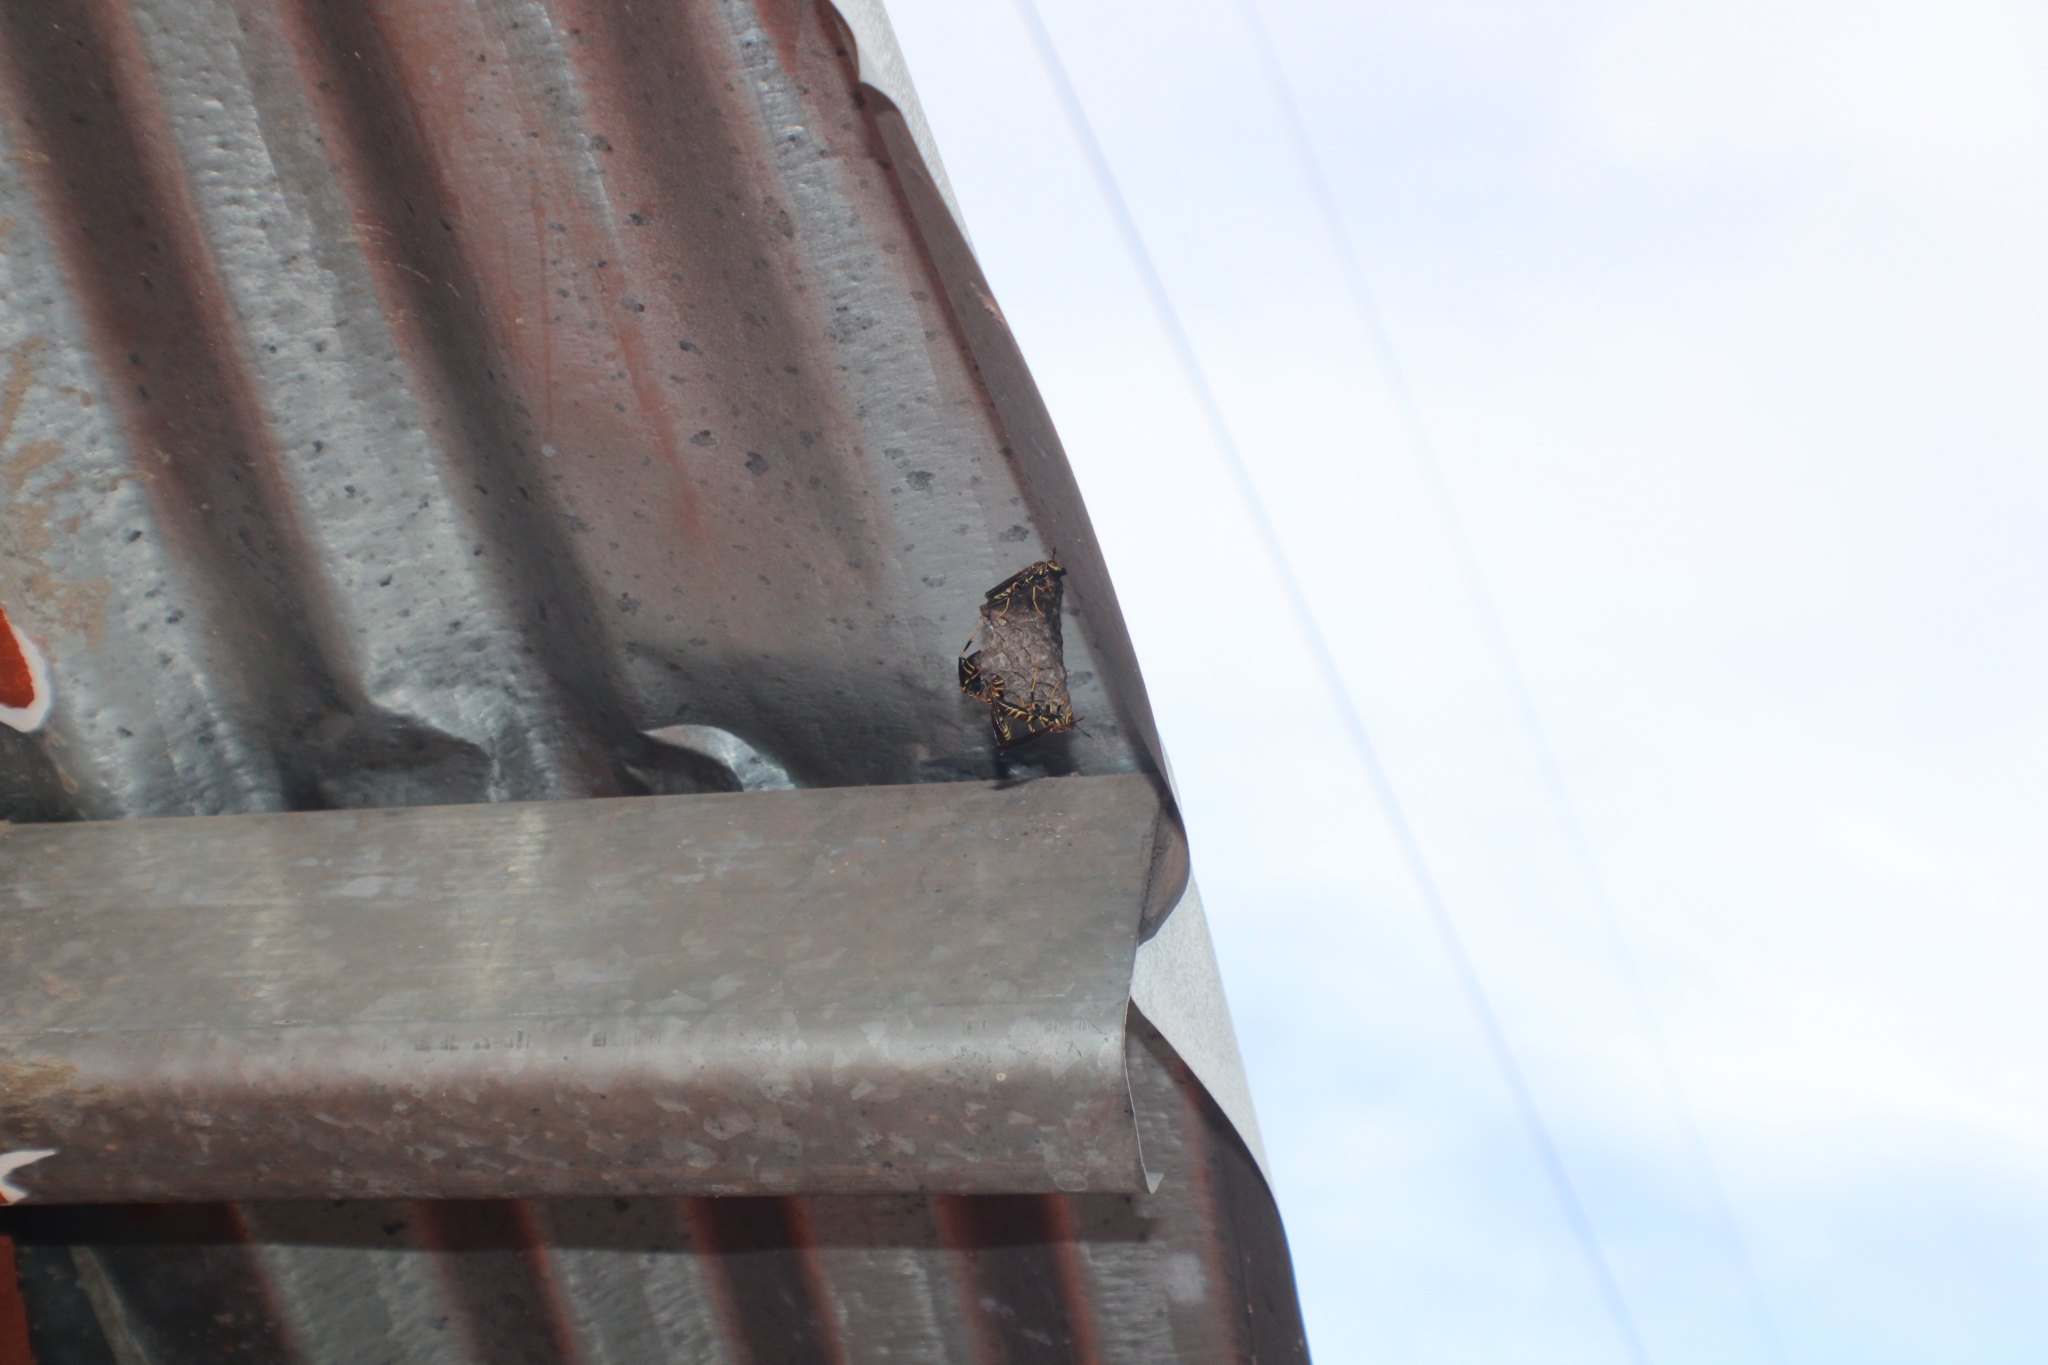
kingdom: Animalia
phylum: Arthropoda
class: Insecta
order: Hymenoptera
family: Eumenidae
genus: Polistes
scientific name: Polistes instabilis
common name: Unstable paper wasp
